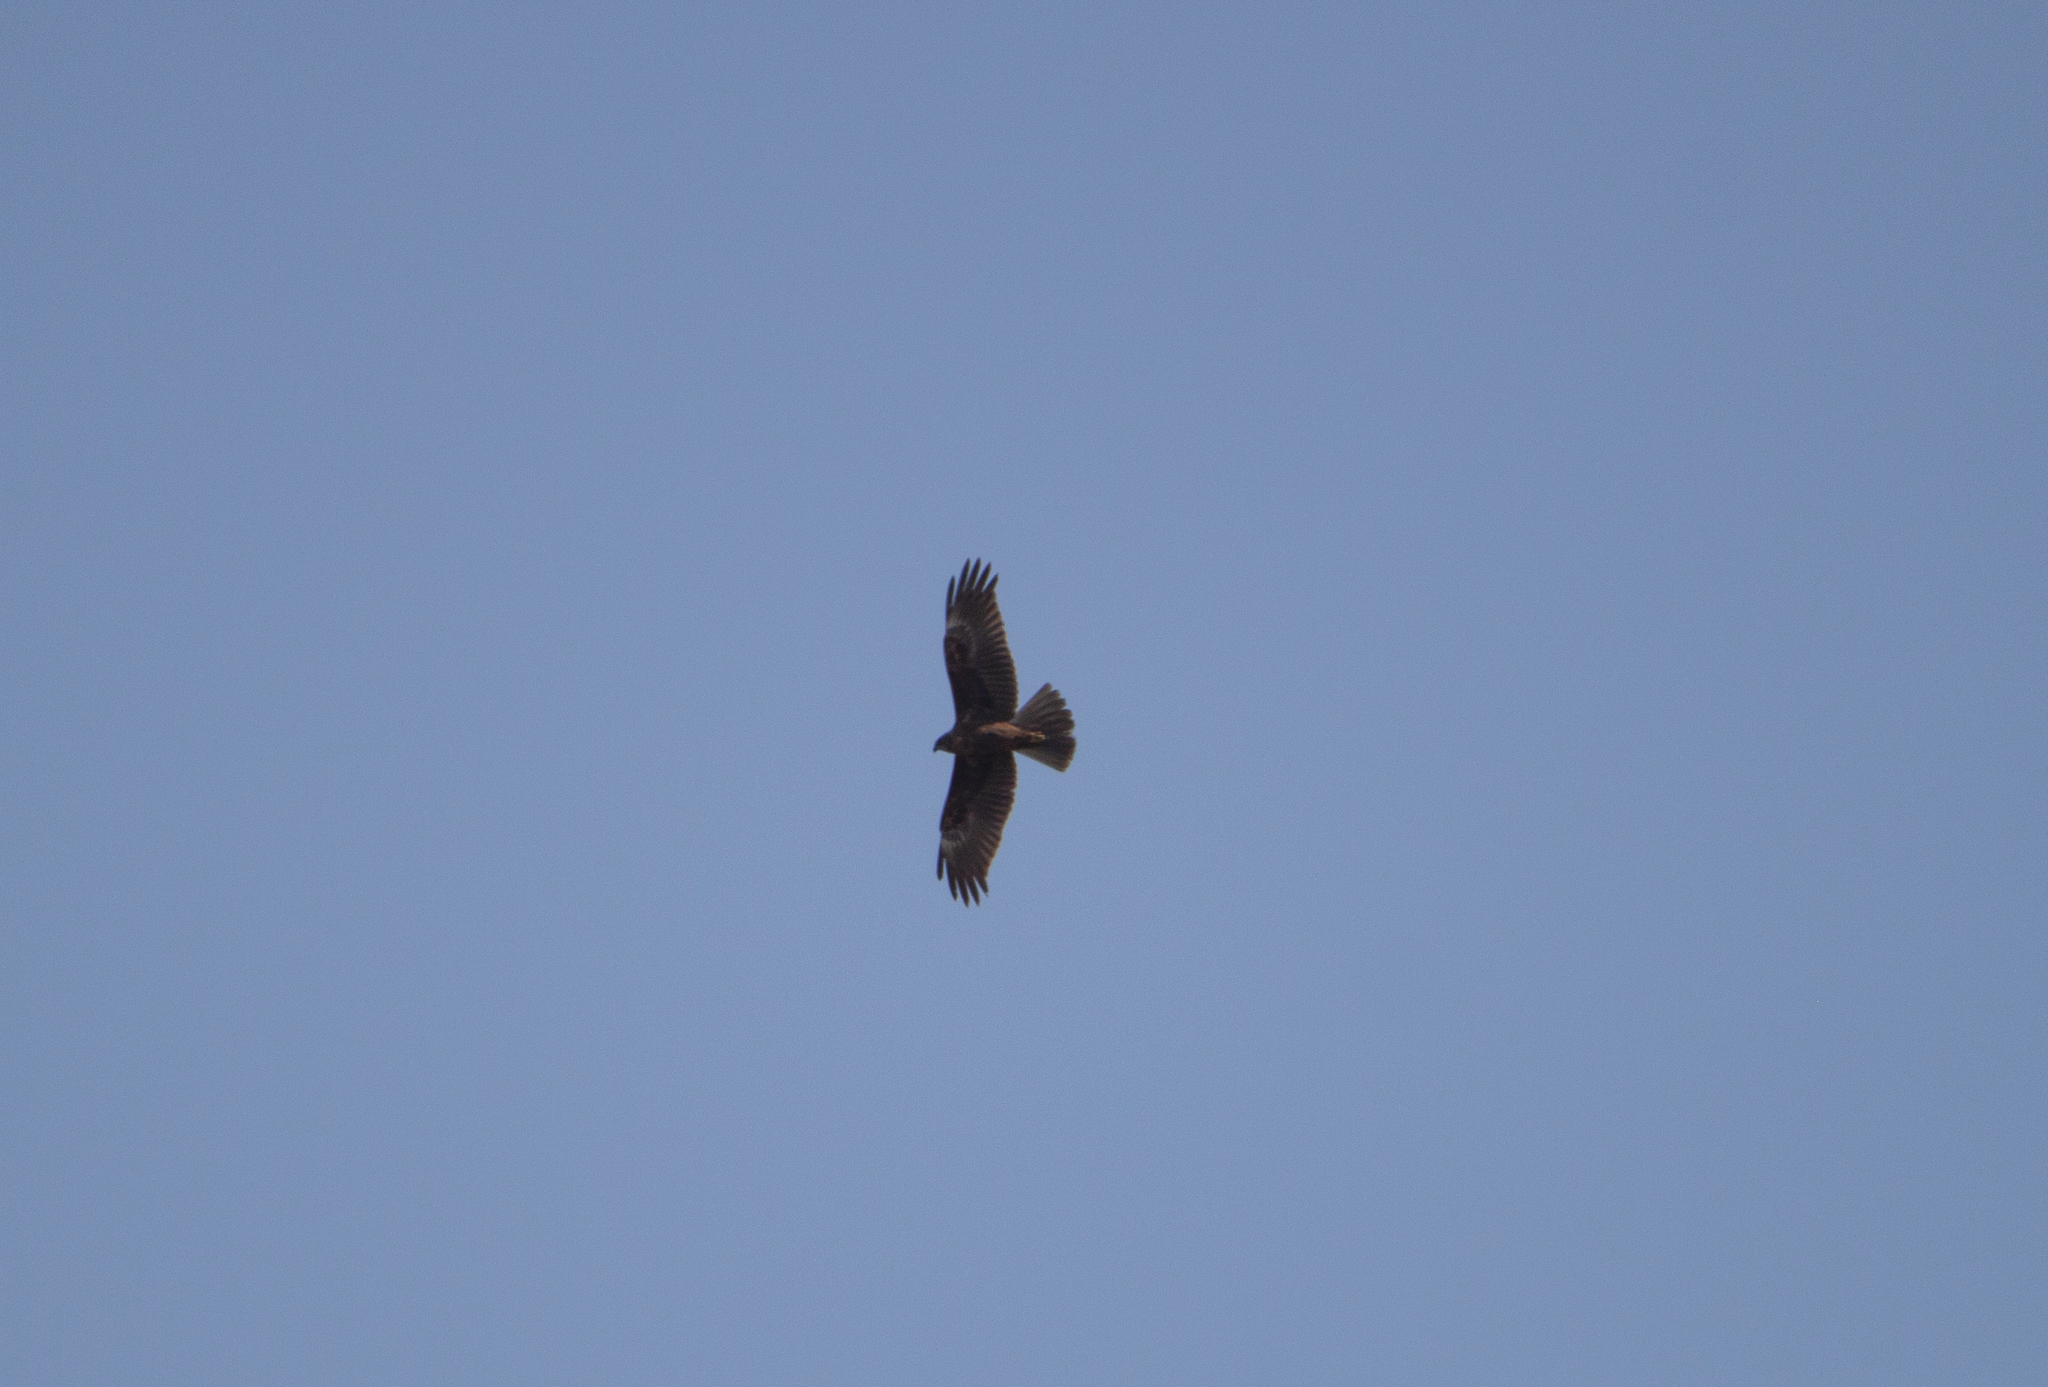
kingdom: Animalia
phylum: Chordata
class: Aves
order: Accipitriformes
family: Accipitridae
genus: Circus
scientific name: Circus aeruginosus
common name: Western marsh harrier
